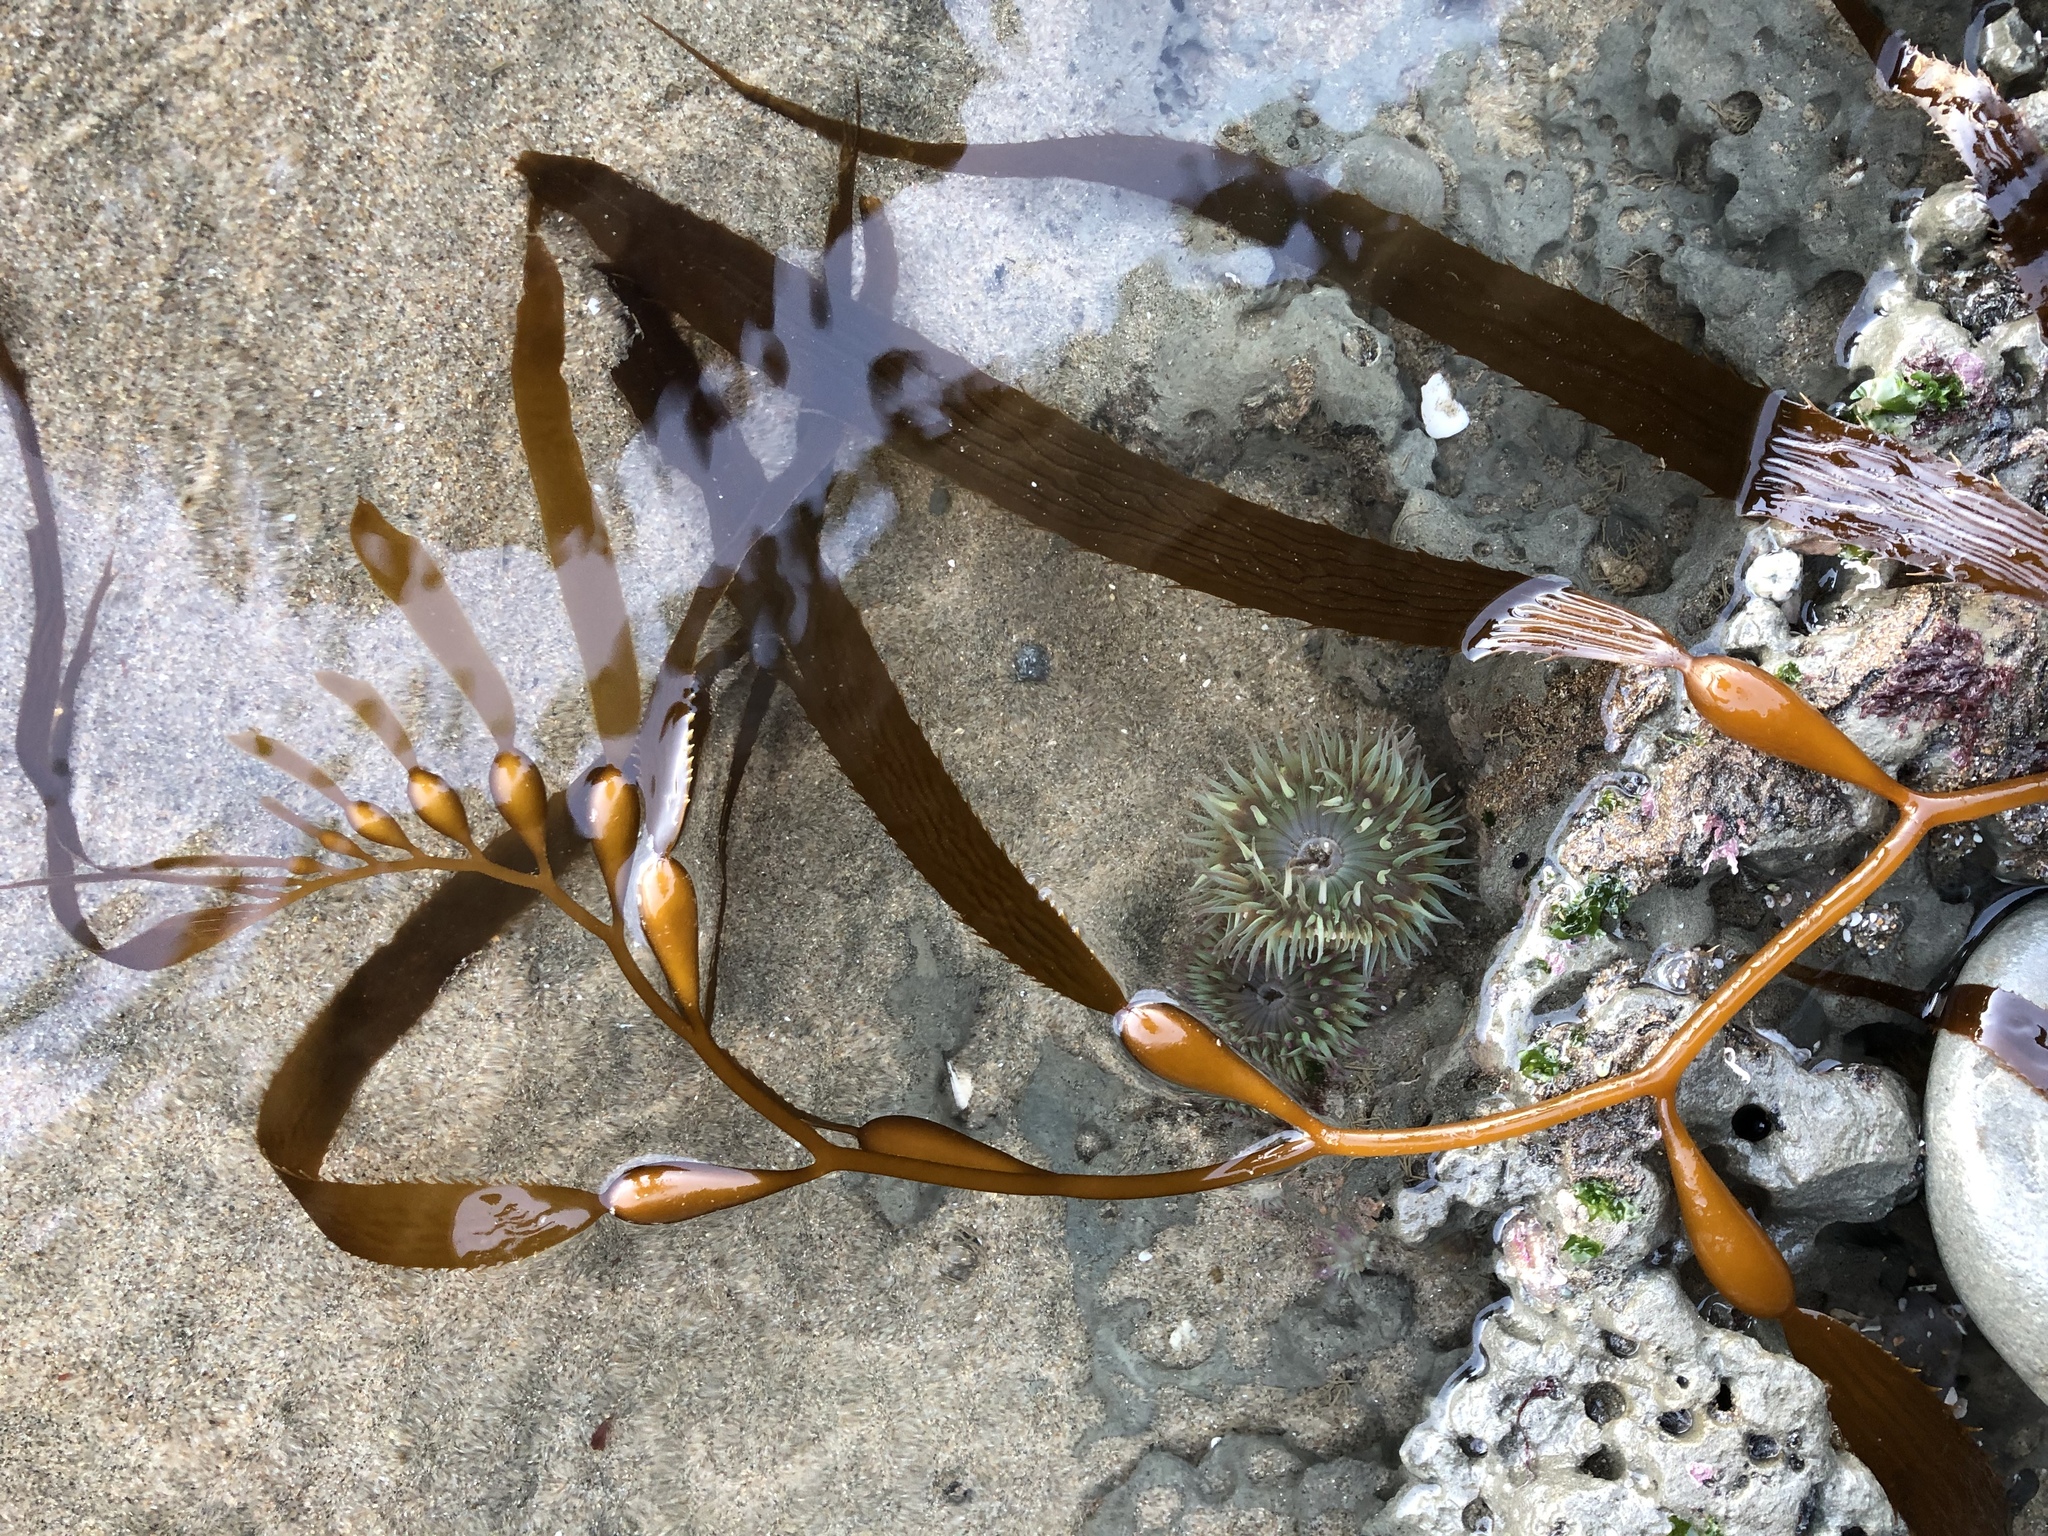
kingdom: Chromista
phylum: Ochrophyta
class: Phaeophyceae
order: Laminariales
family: Laminariaceae
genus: Macrocystis
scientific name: Macrocystis pyrifera
